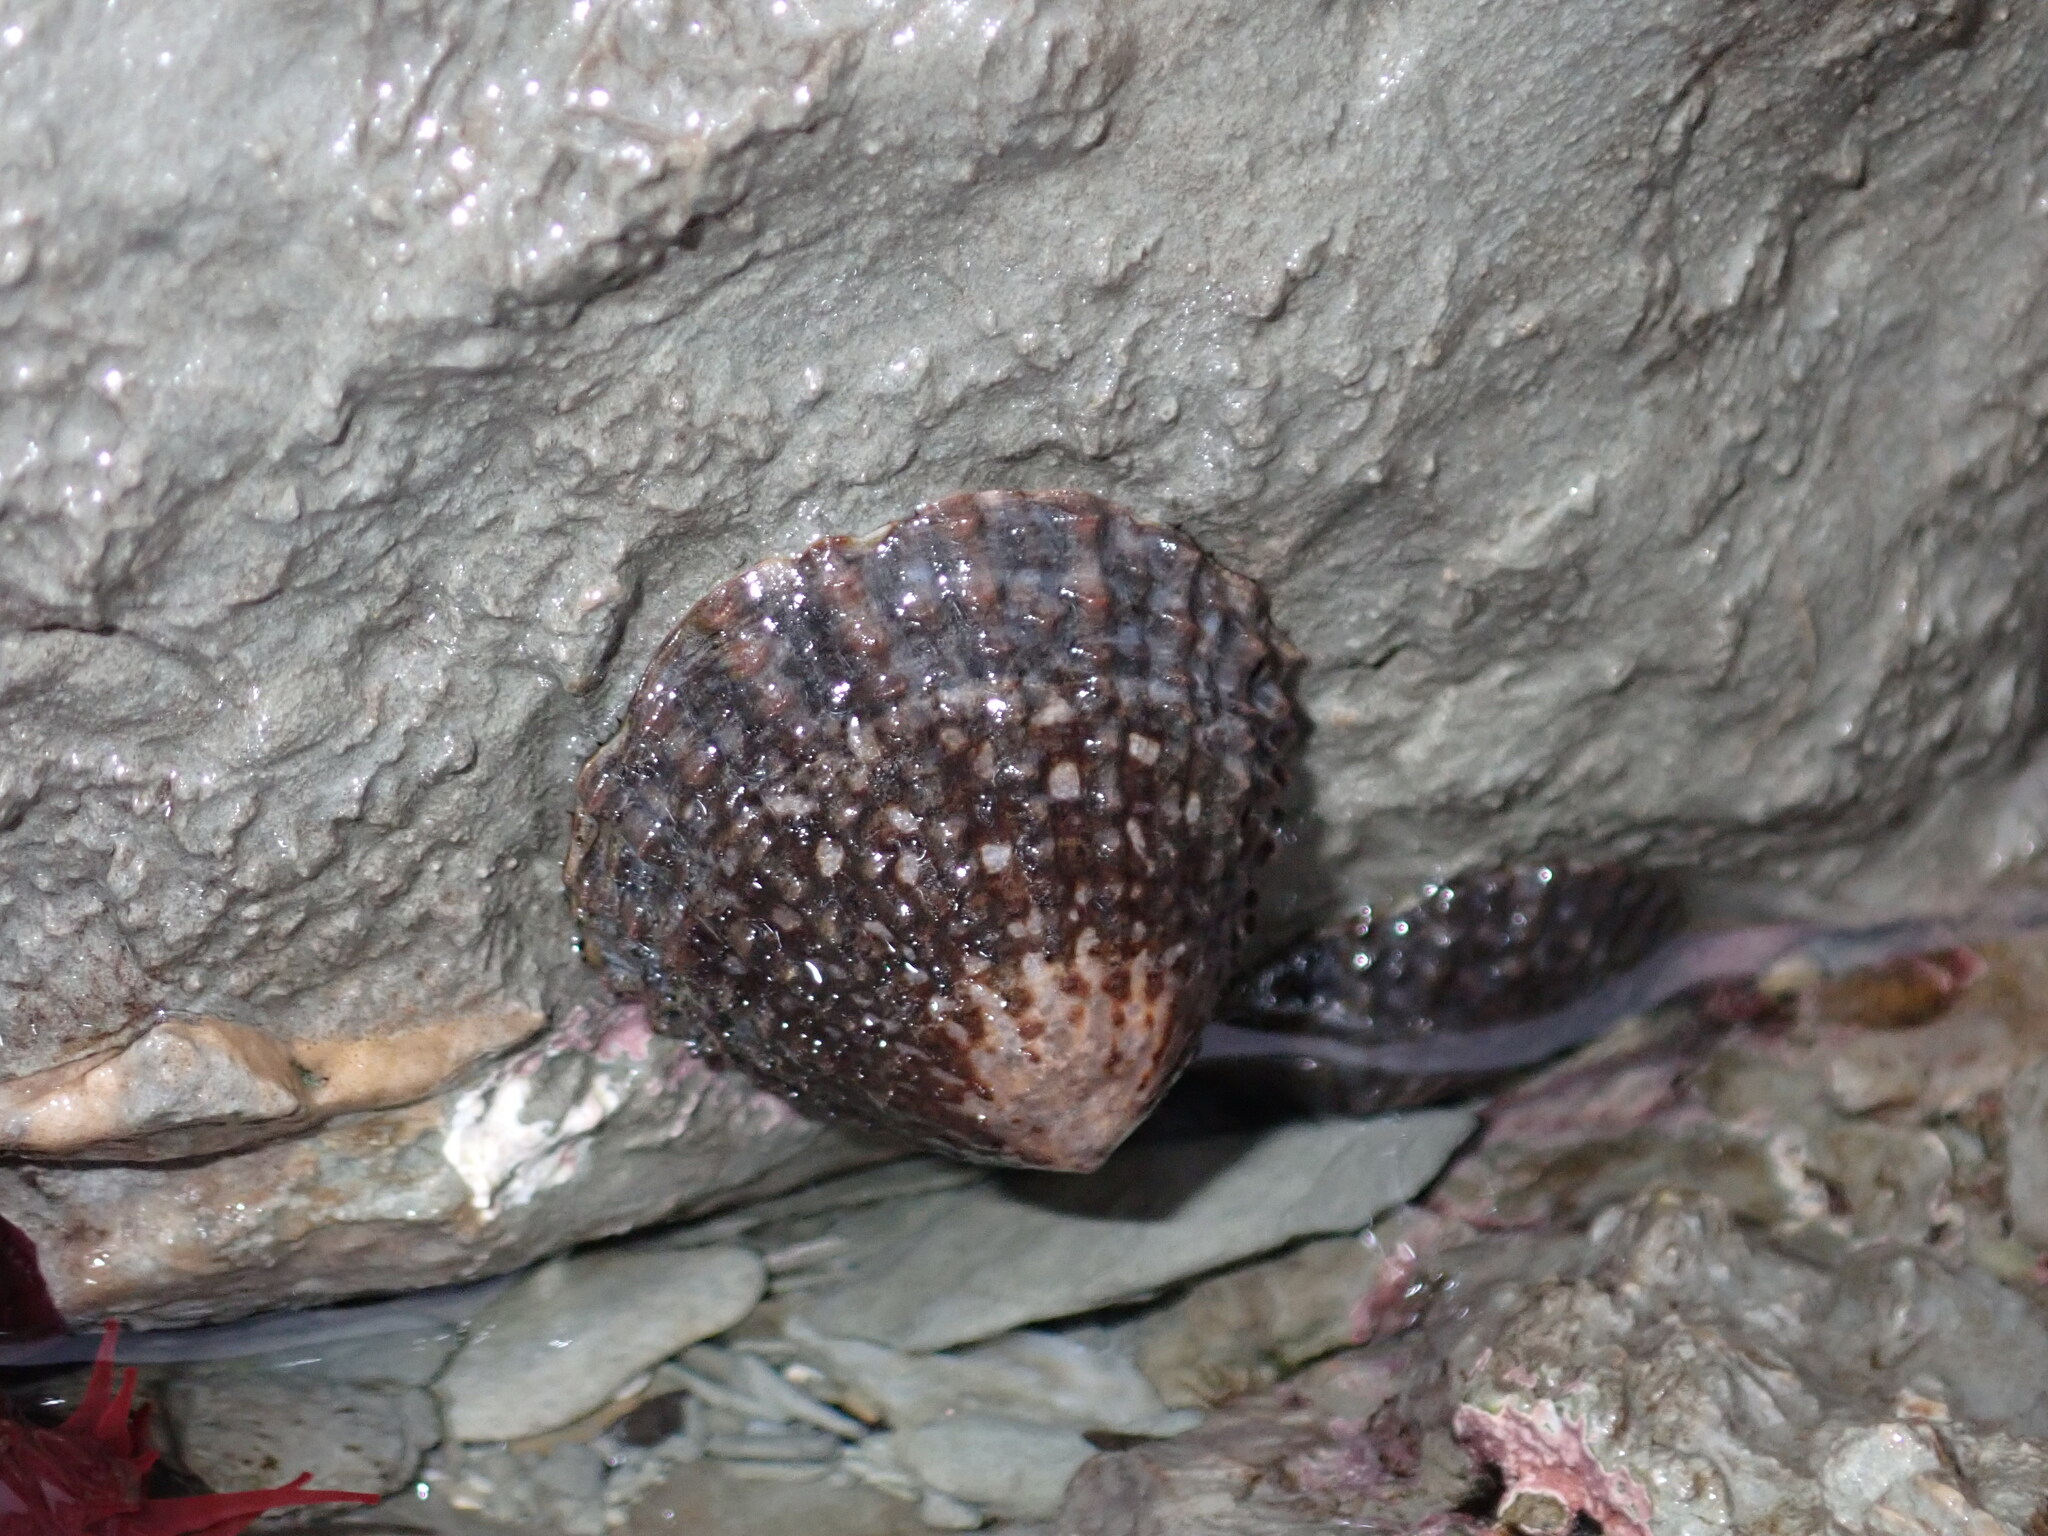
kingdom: Animalia
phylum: Mollusca
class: Gastropoda
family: Nacellidae
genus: Cellana
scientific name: Cellana denticulata
